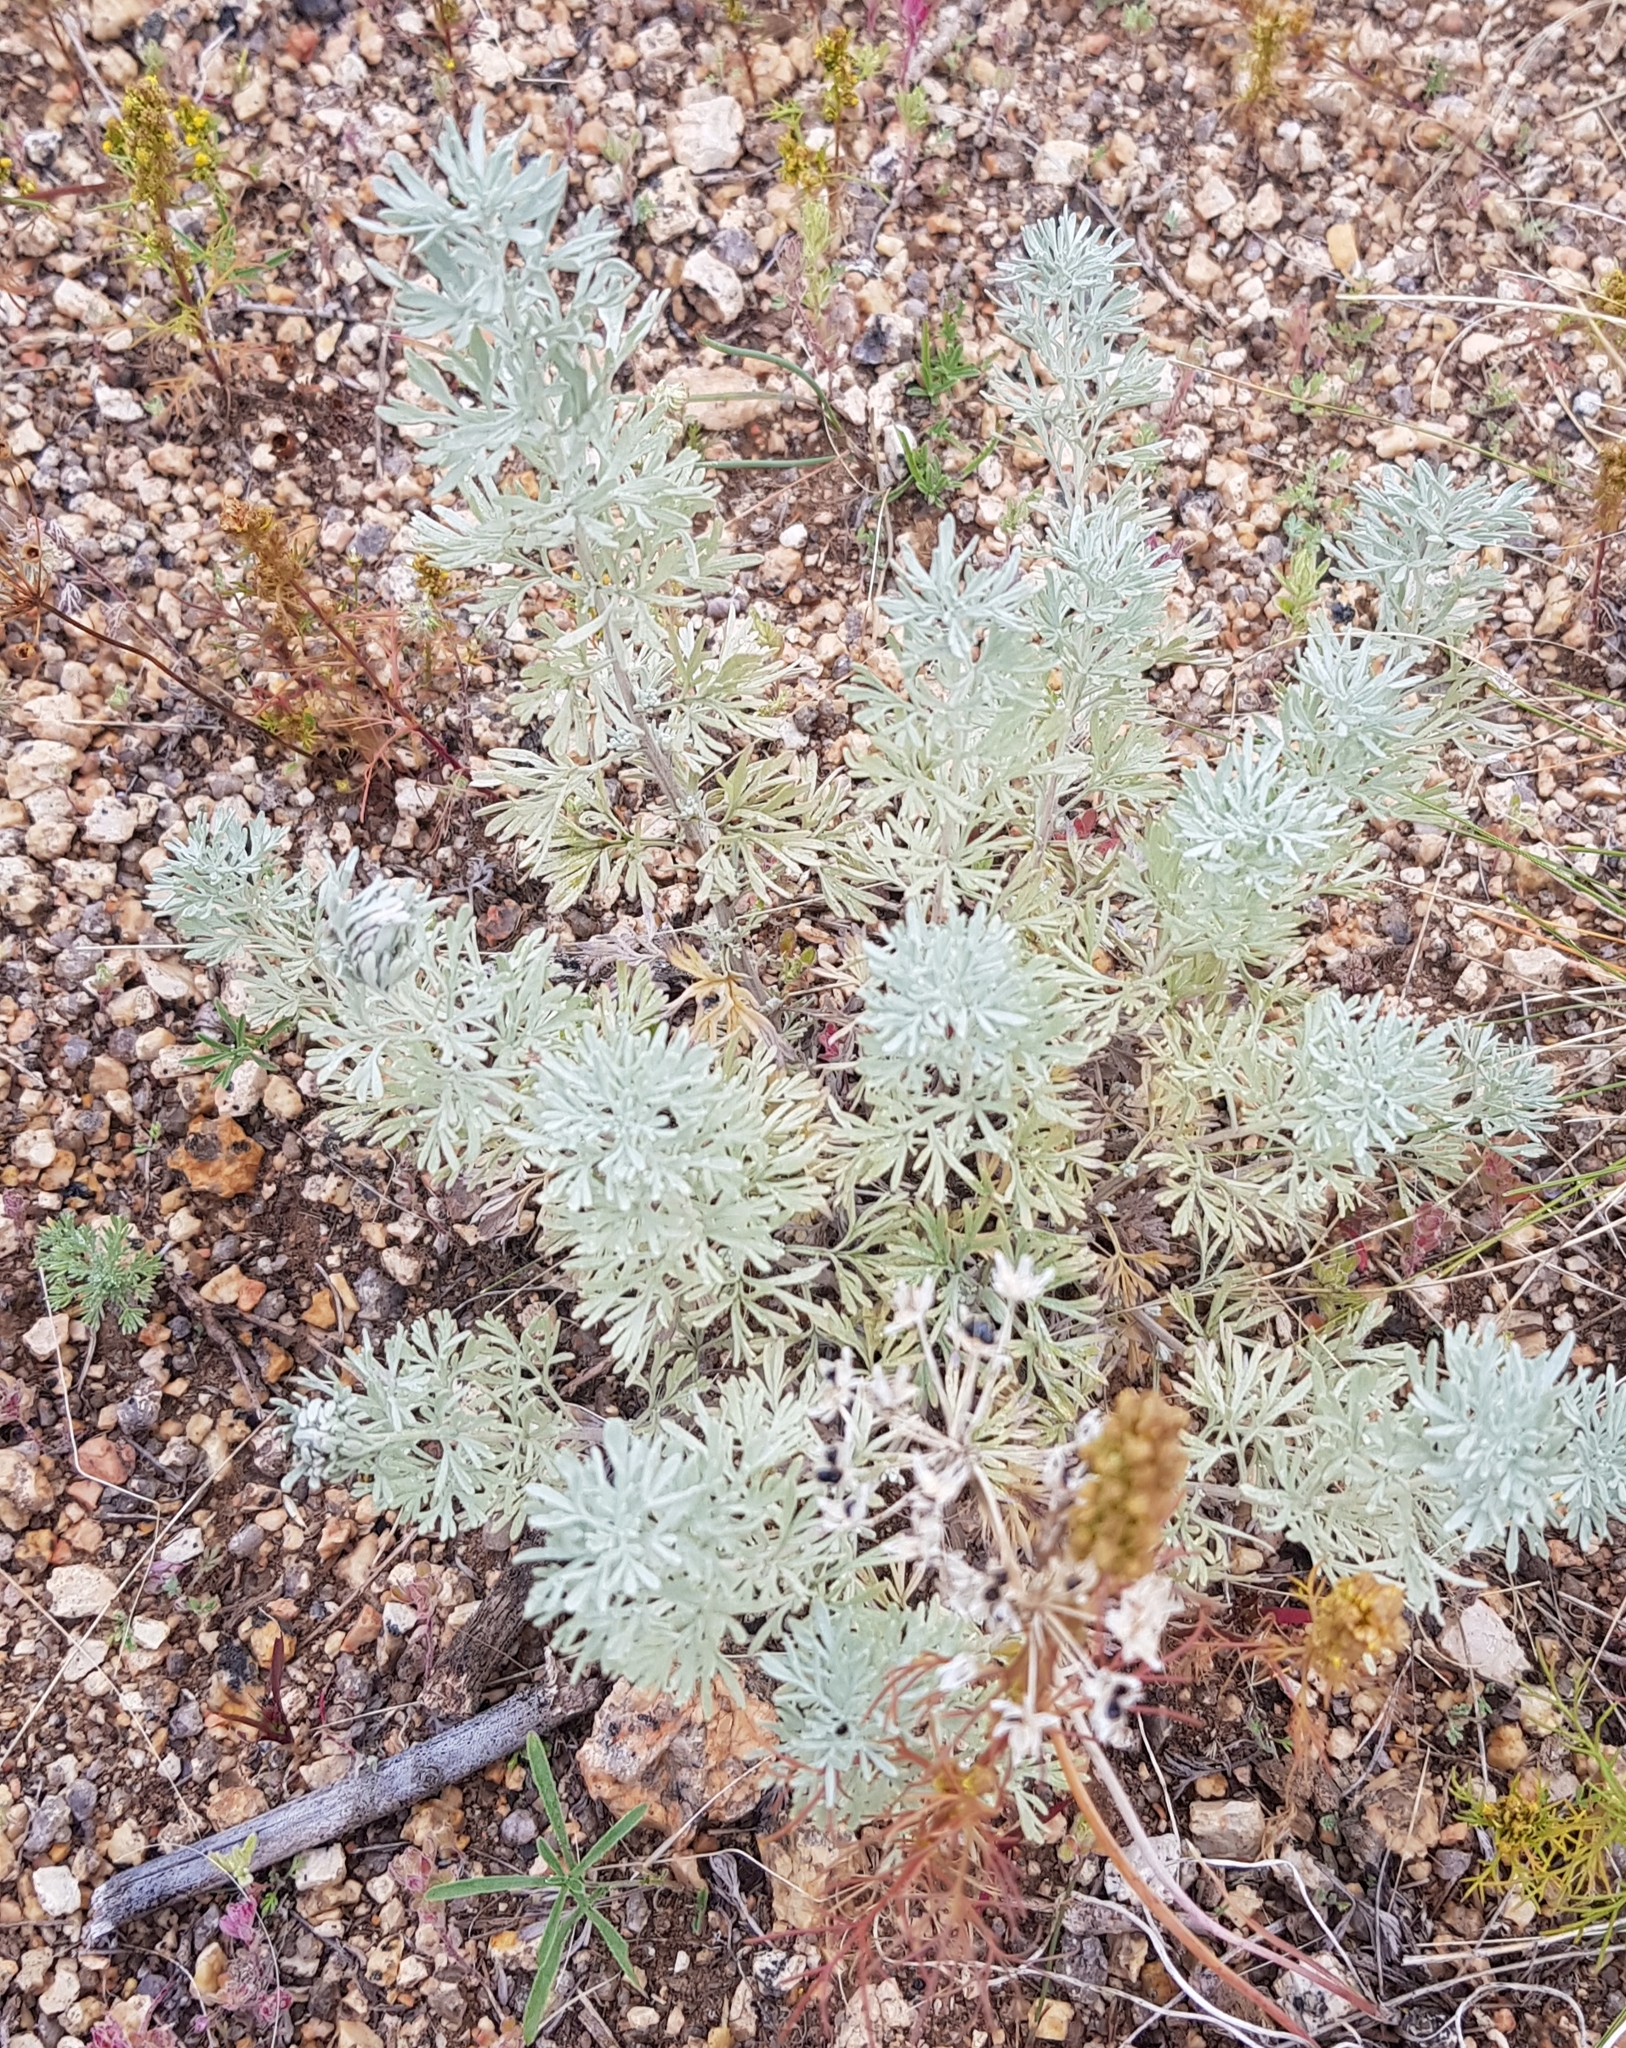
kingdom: Plantae
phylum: Tracheophyta
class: Magnoliopsida
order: Asterales
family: Asteraceae
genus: Artemisia
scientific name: Artemisia sericea
